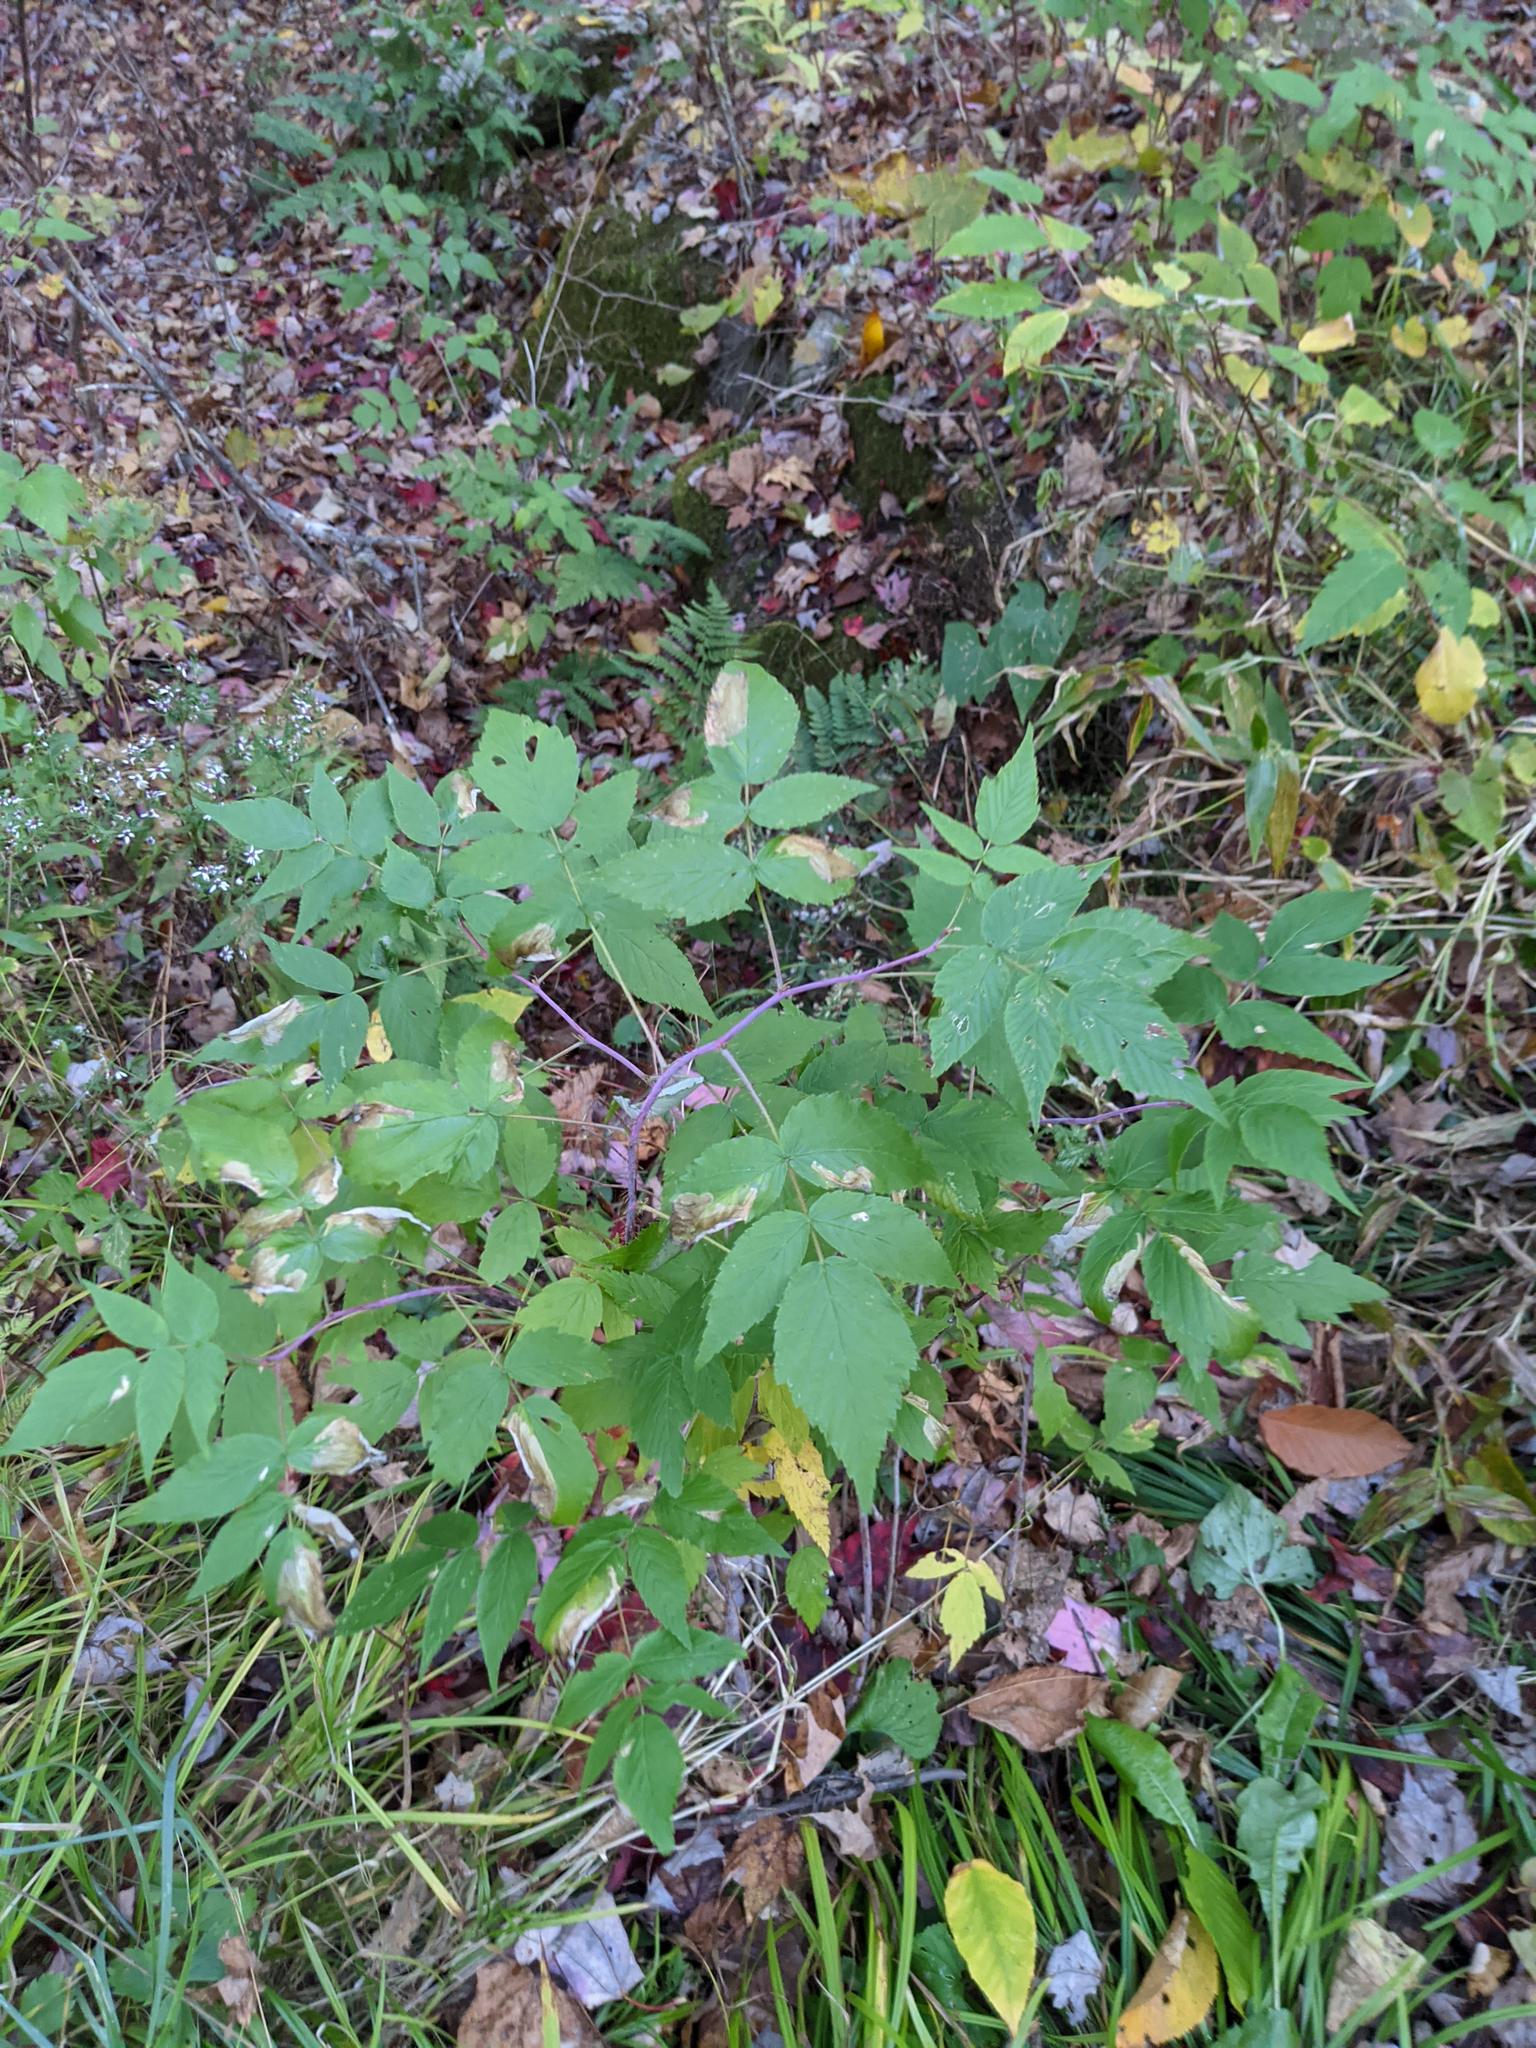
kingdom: Plantae
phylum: Tracheophyta
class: Magnoliopsida
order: Rosales
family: Rosaceae
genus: Rubus
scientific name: Rubus idaeus
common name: Raspberry
